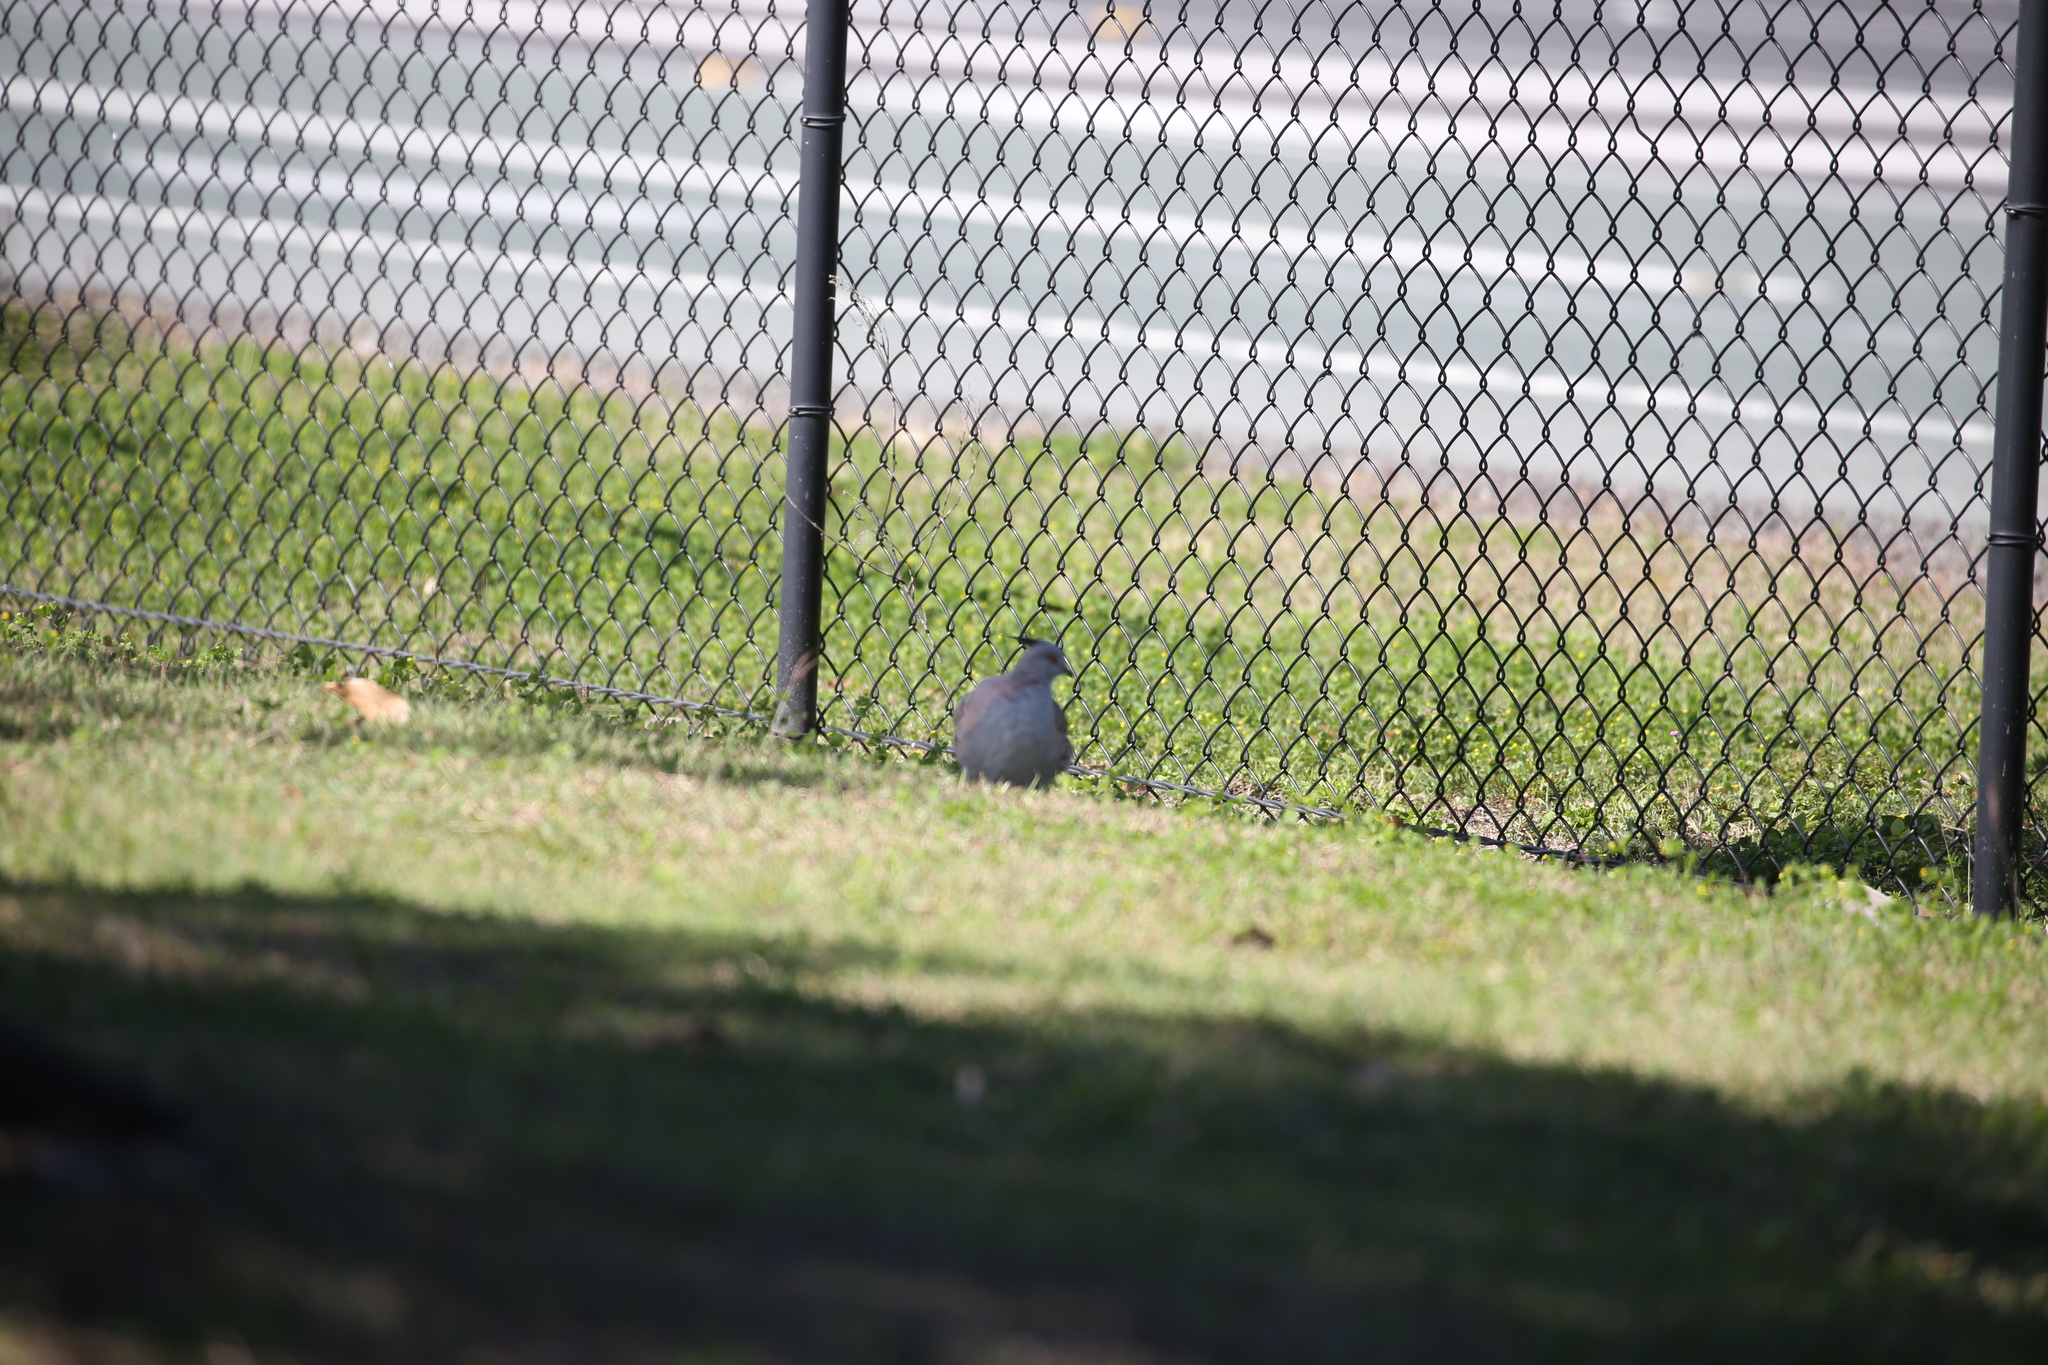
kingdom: Animalia
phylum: Chordata
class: Aves
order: Columbiformes
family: Columbidae
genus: Ocyphaps
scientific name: Ocyphaps lophotes
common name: Crested pigeon
